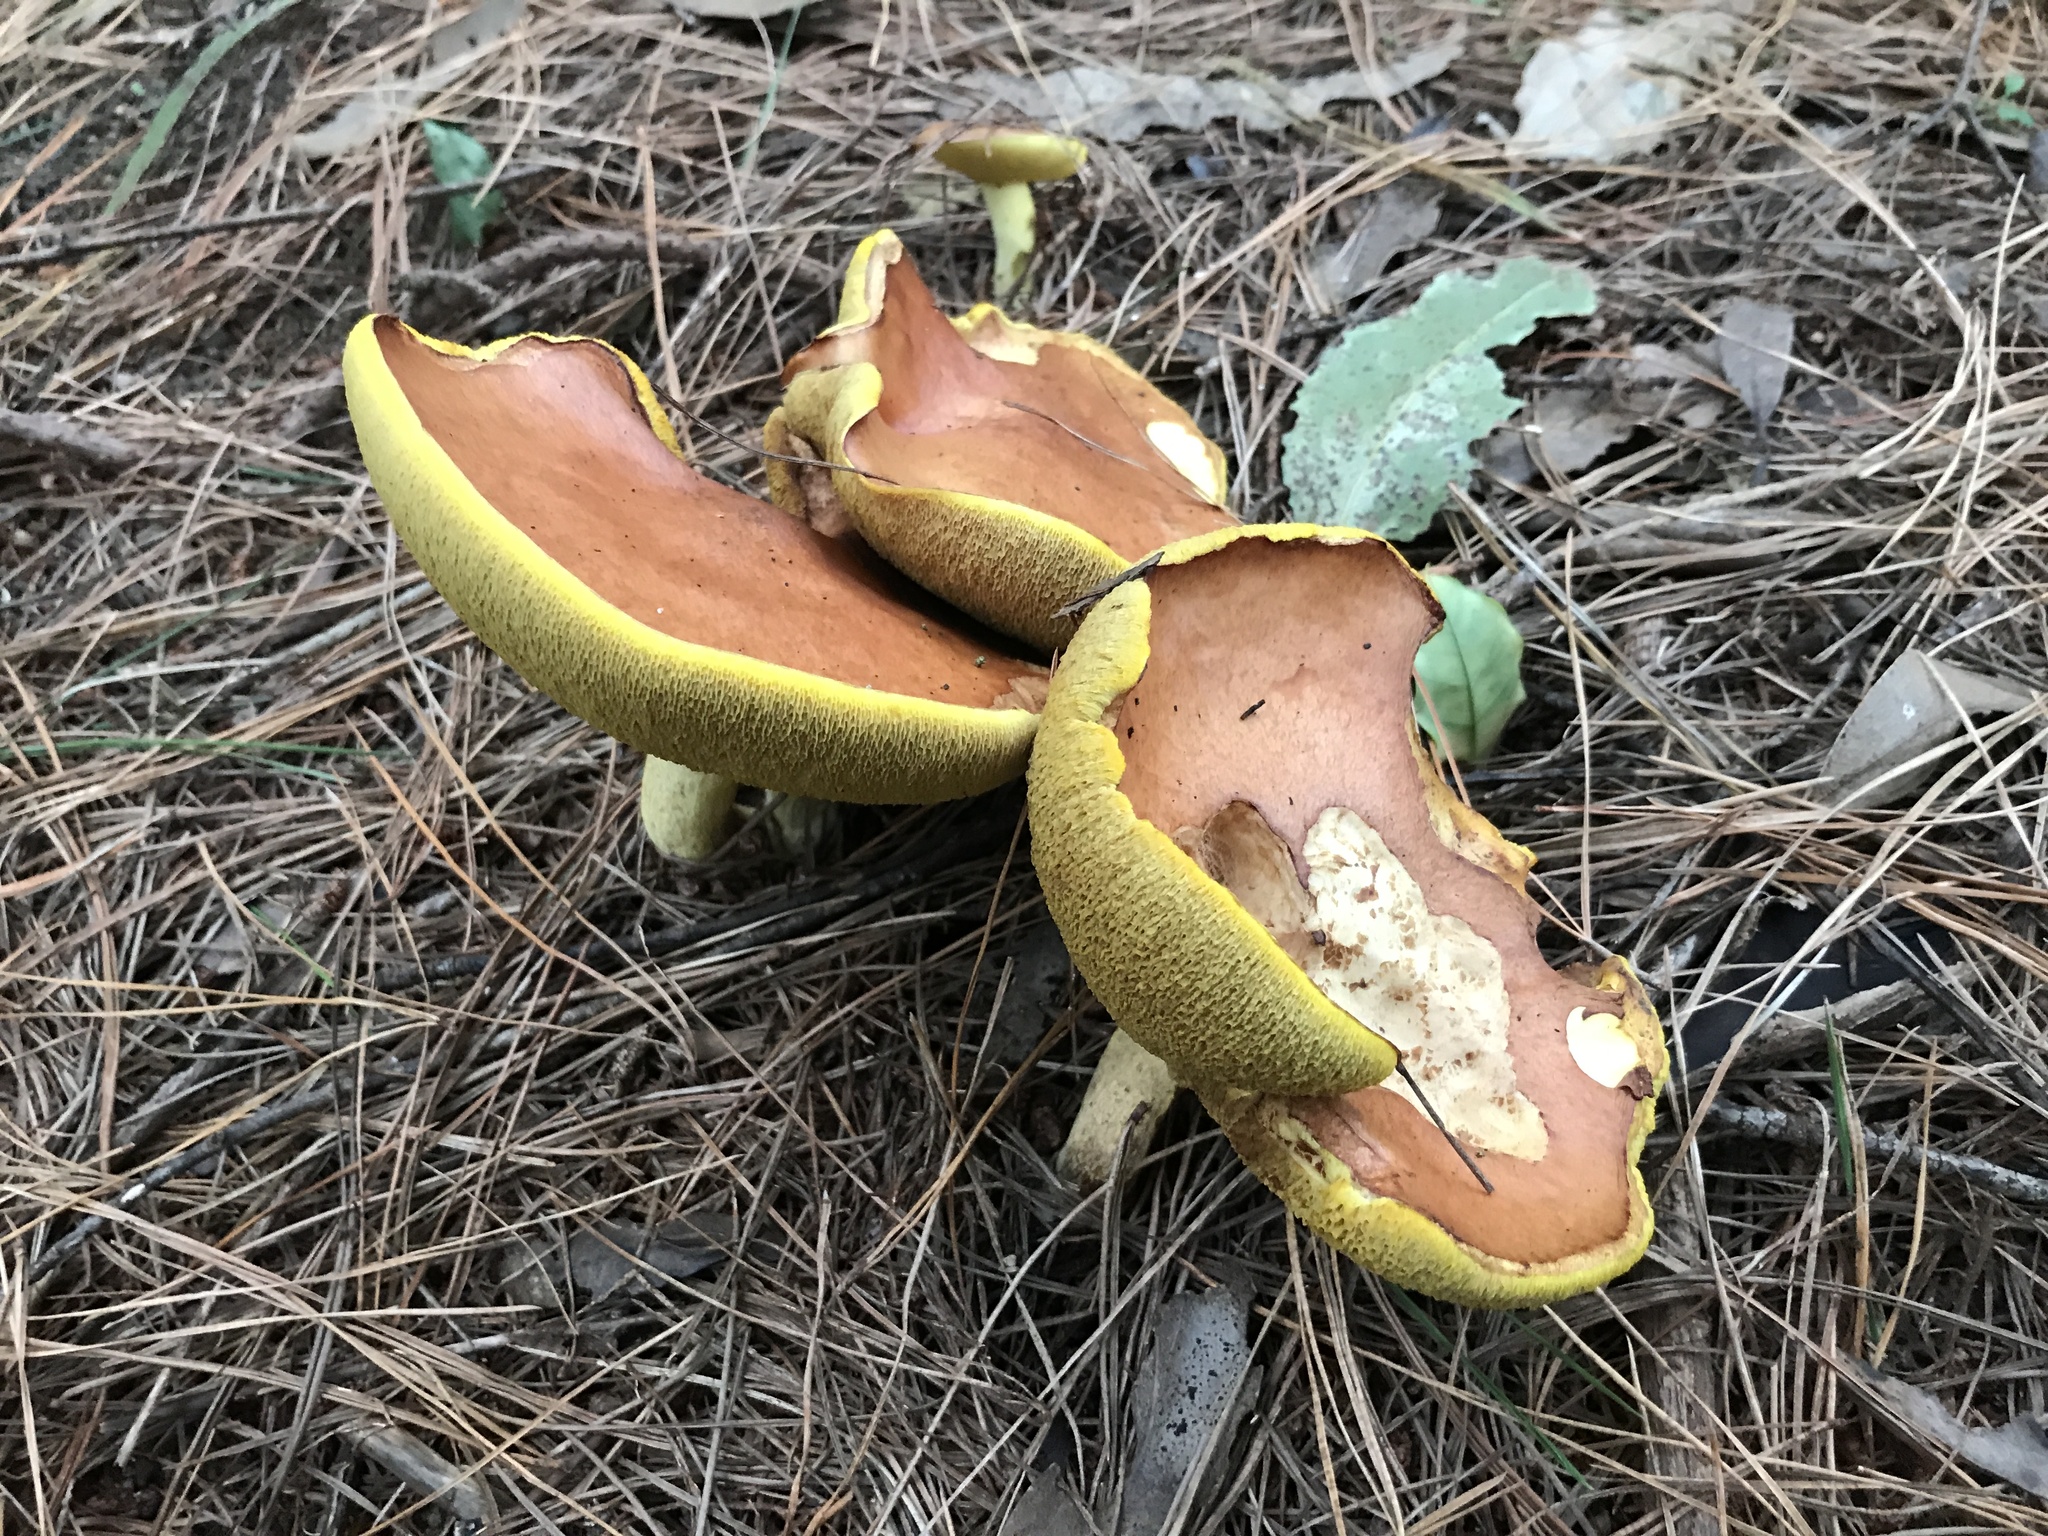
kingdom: Fungi
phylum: Basidiomycota
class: Agaricomycetes
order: Boletales
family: Suillaceae
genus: Suillus
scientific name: Suillus granulatus
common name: Weeping bolete
